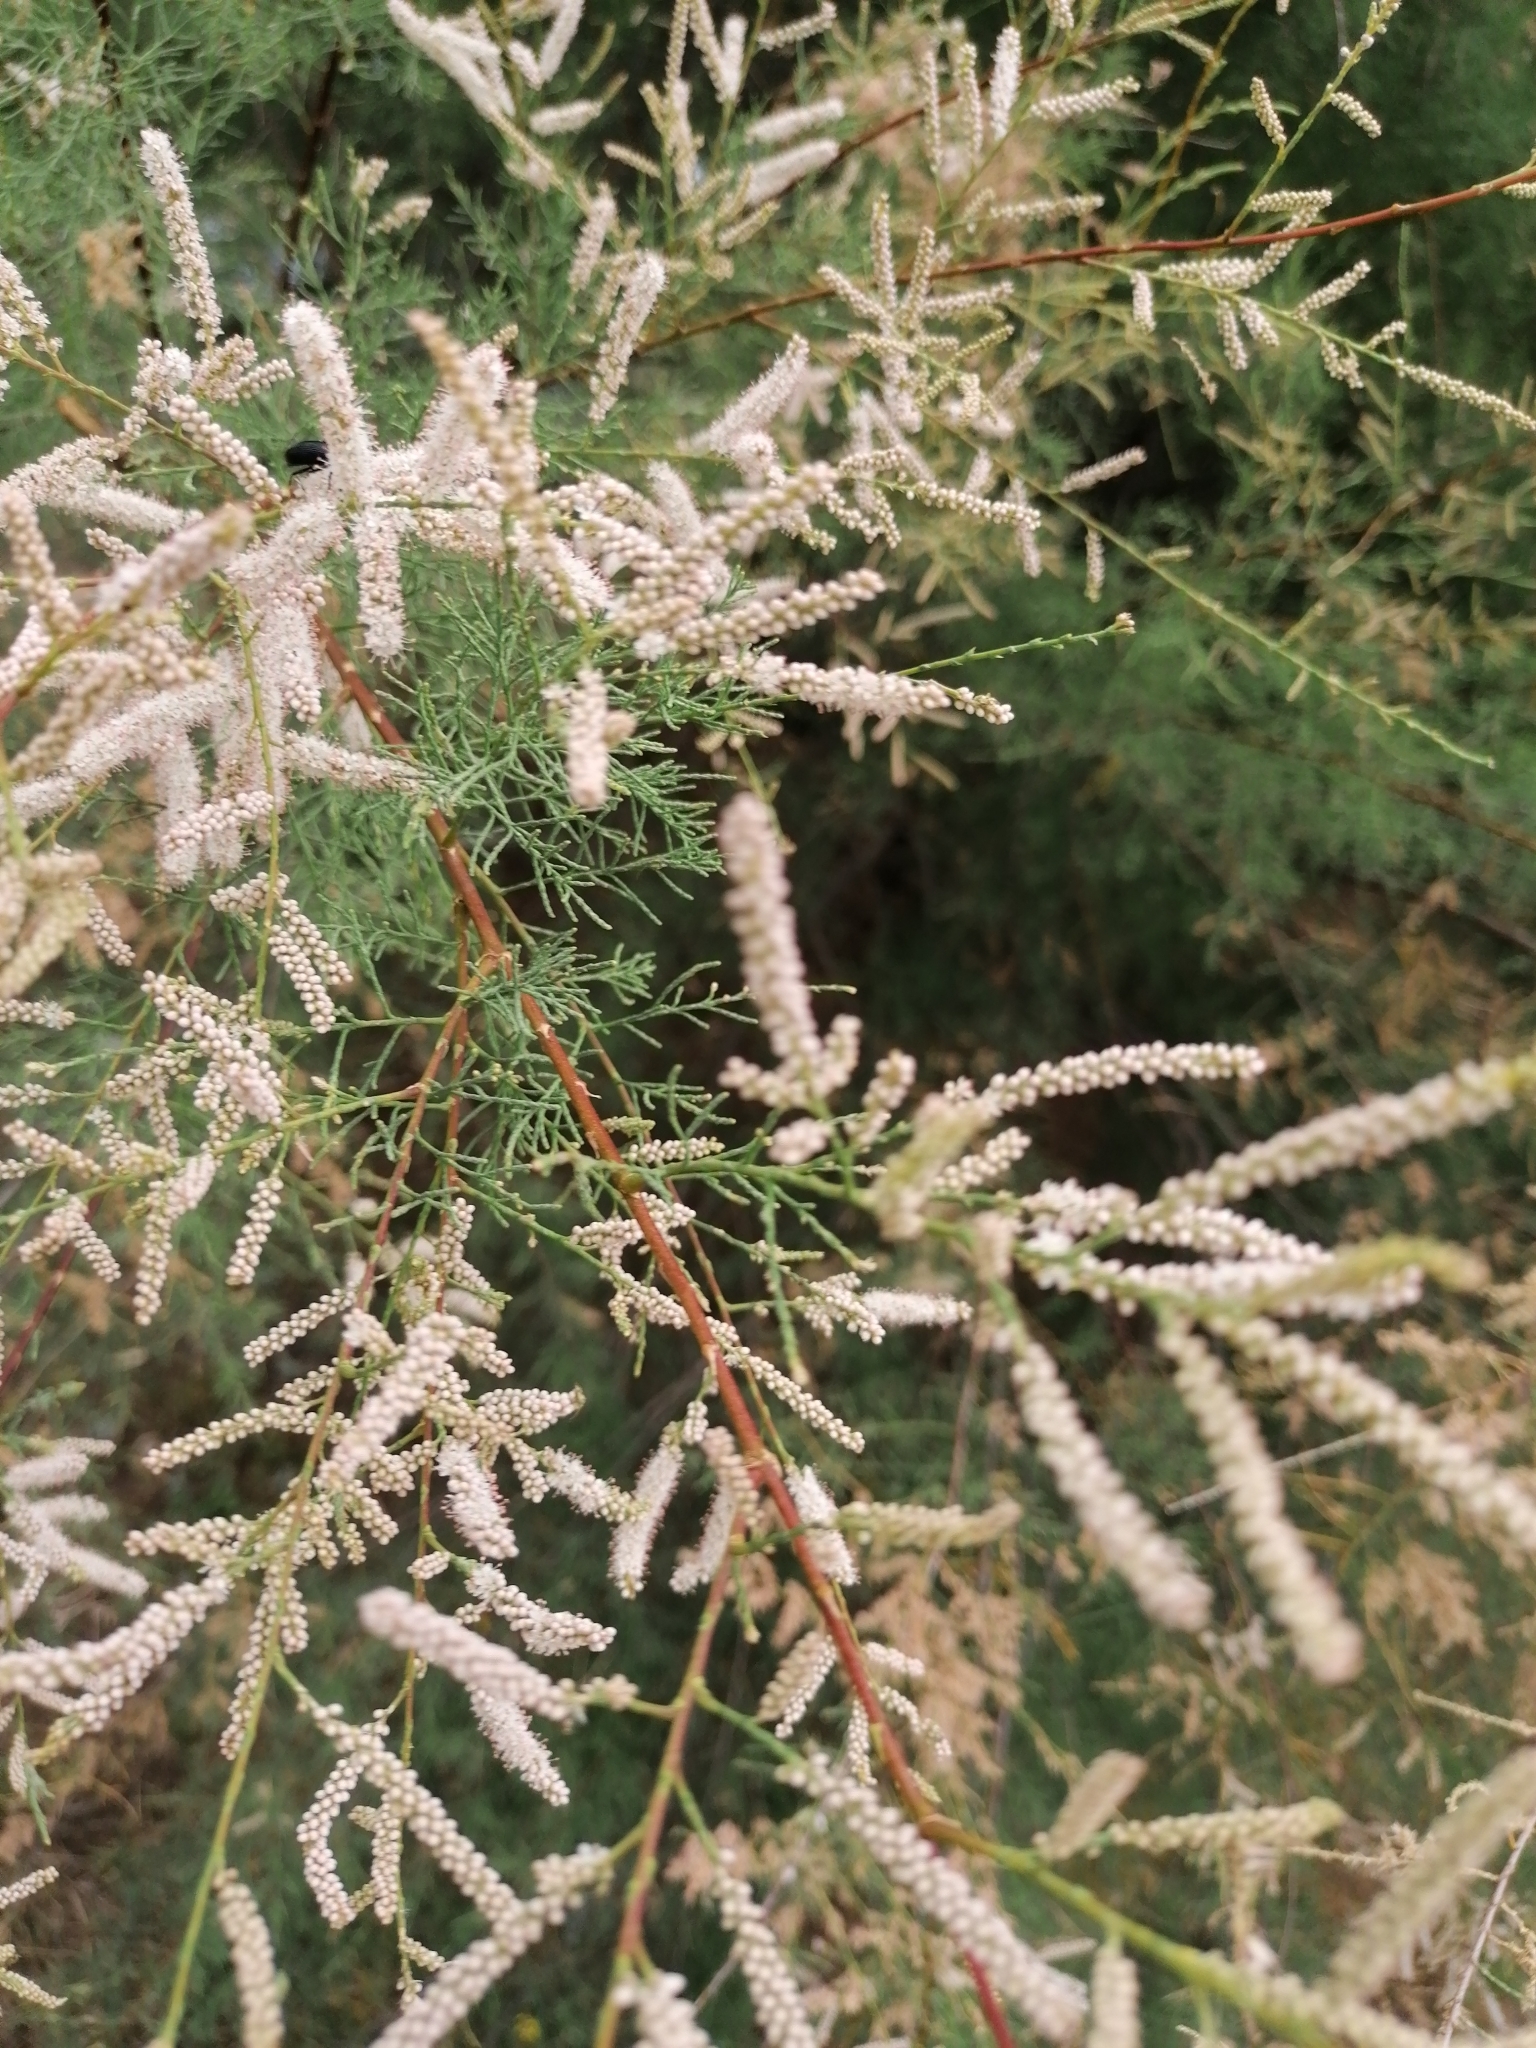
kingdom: Plantae
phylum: Tracheophyta
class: Magnoliopsida
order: Caryophyllales
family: Tamaricaceae
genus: Tamarix
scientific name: Tamarix gallica
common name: Tamarisk
